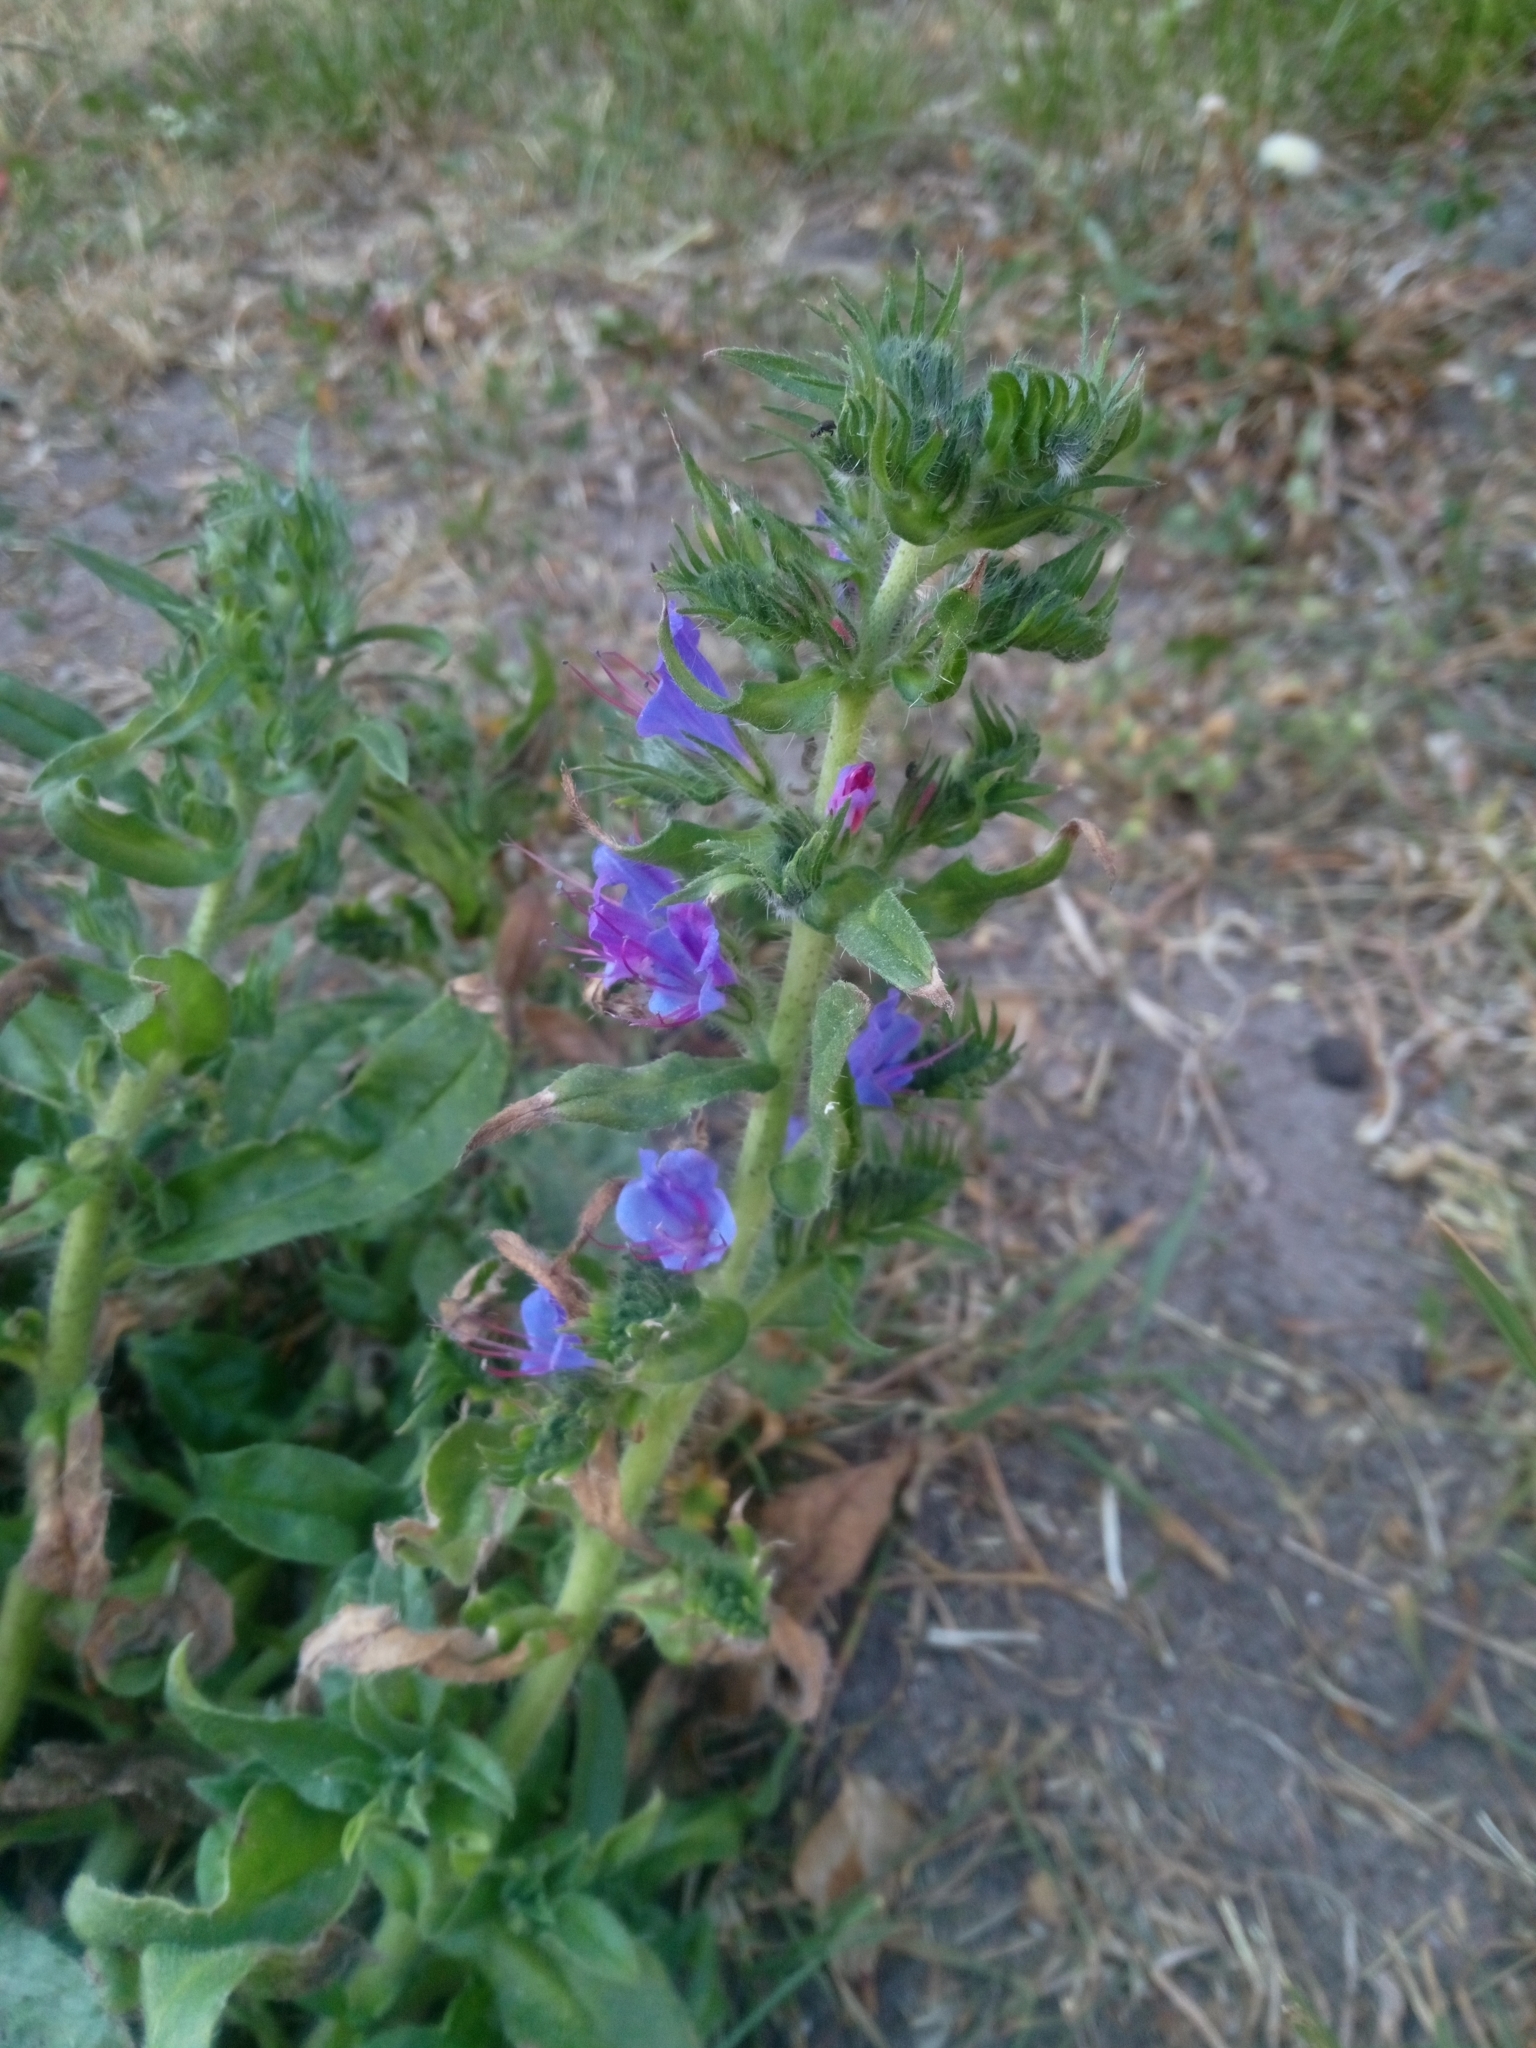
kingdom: Plantae
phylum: Tracheophyta
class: Magnoliopsida
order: Boraginales
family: Boraginaceae
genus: Echium
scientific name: Echium vulgare
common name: Common viper's bugloss
